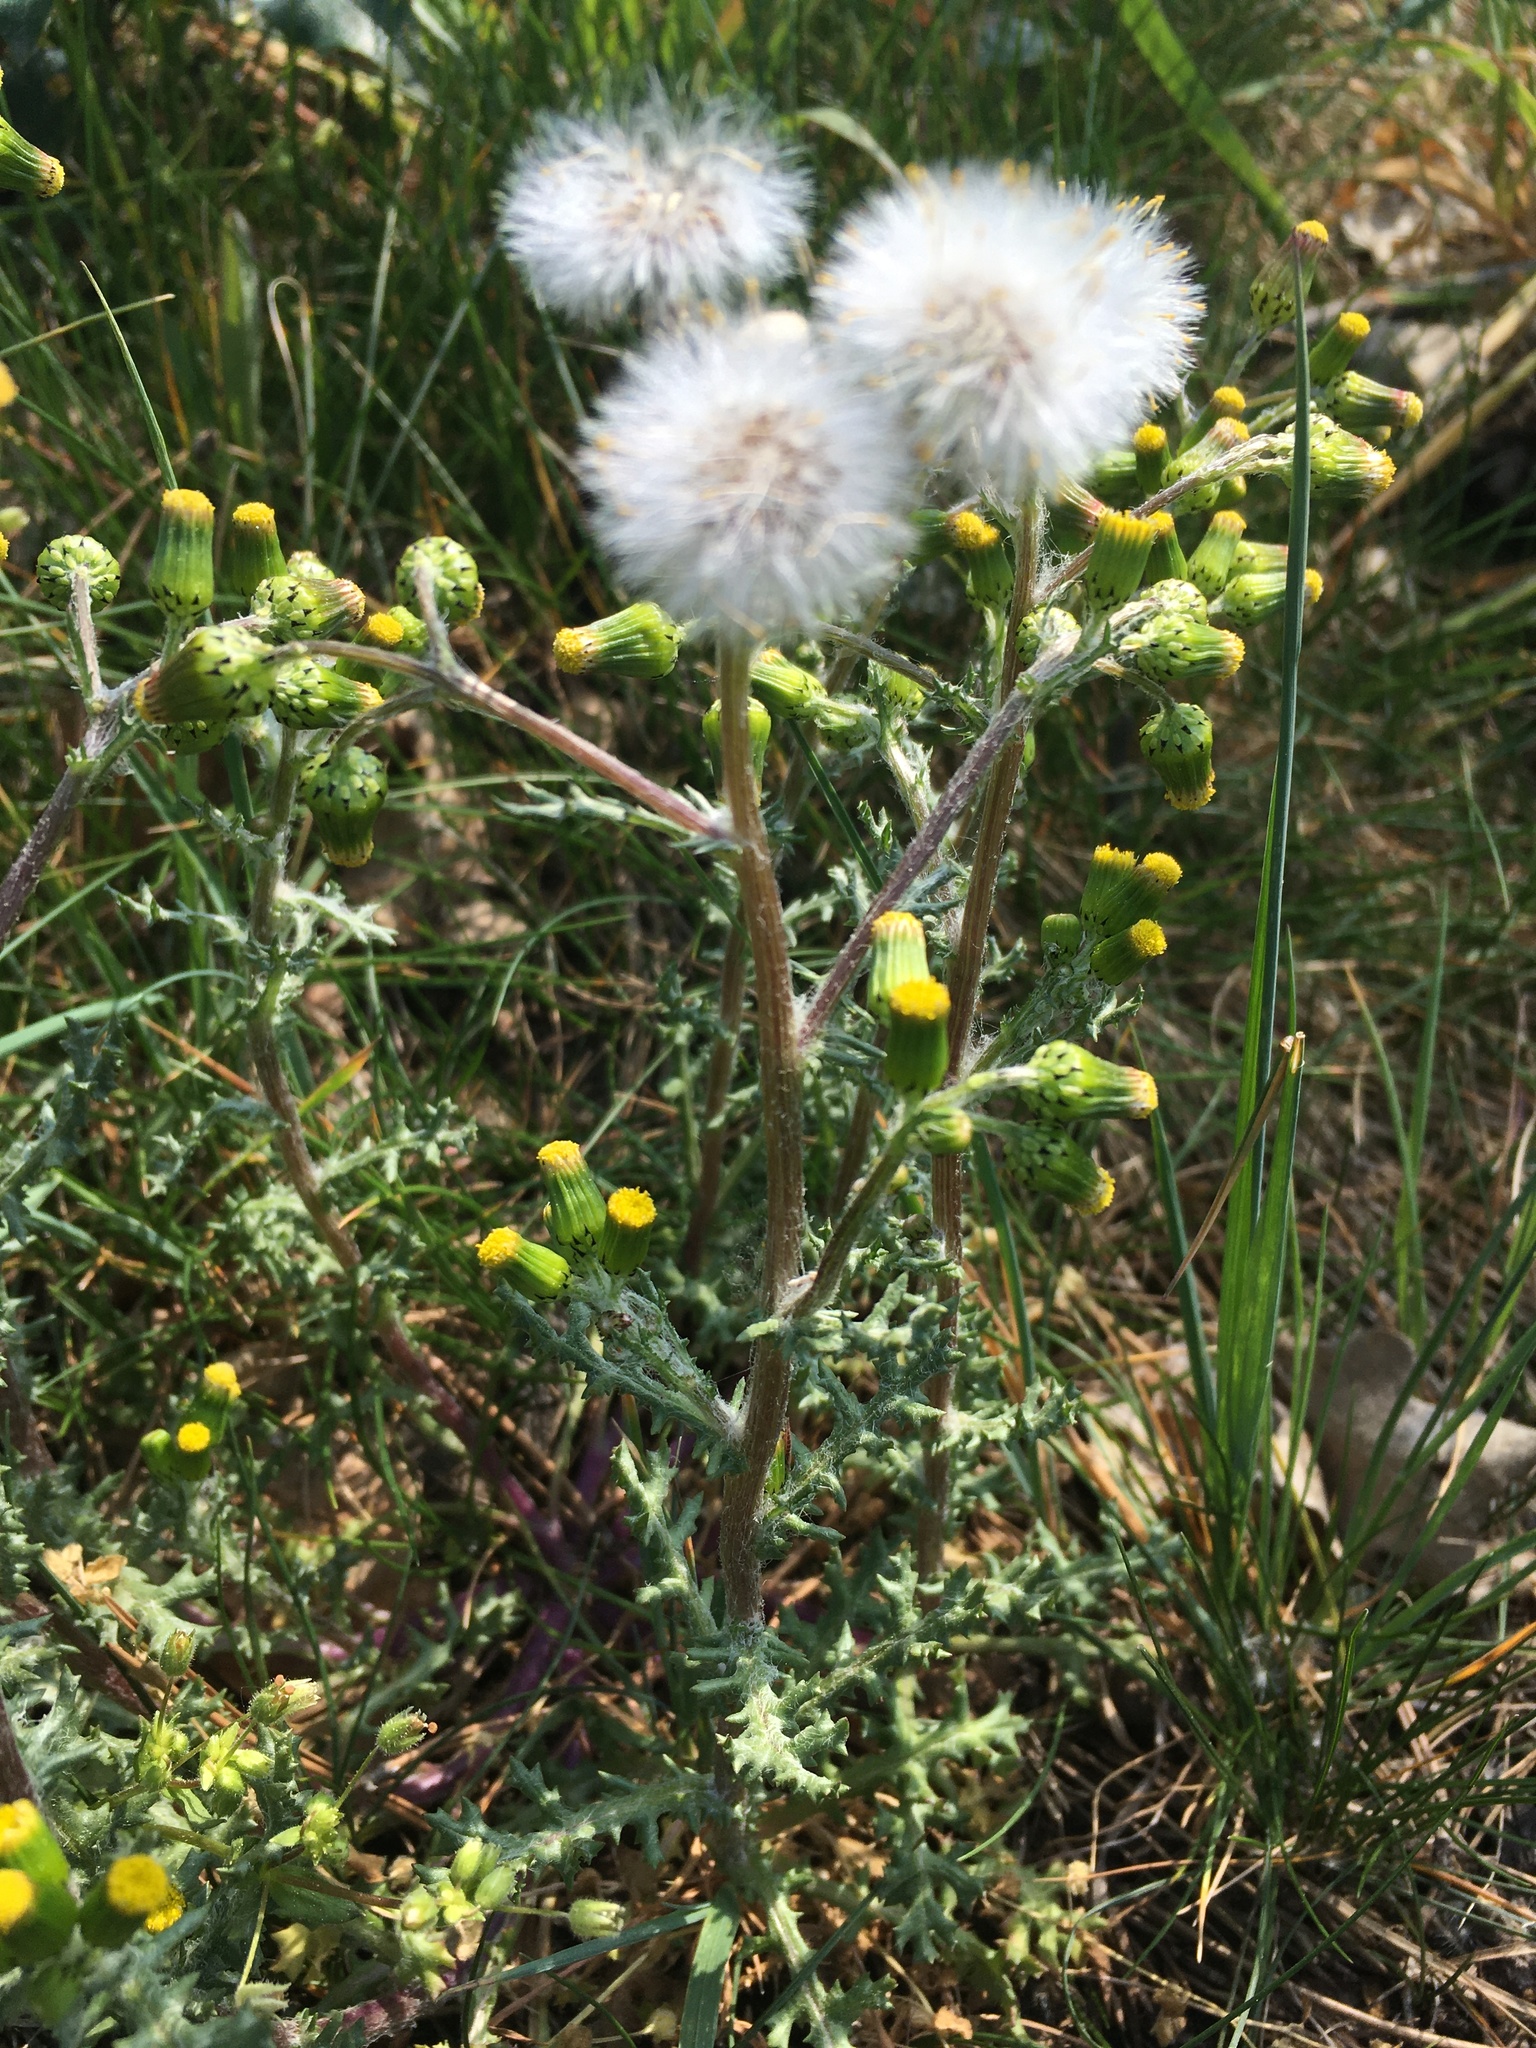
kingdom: Plantae
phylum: Tracheophyta
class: Magnoliopsida
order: Asterales
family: Asteraceae
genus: Senecio
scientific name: Senecio vulgaris
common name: Old-man-in-the-spring
